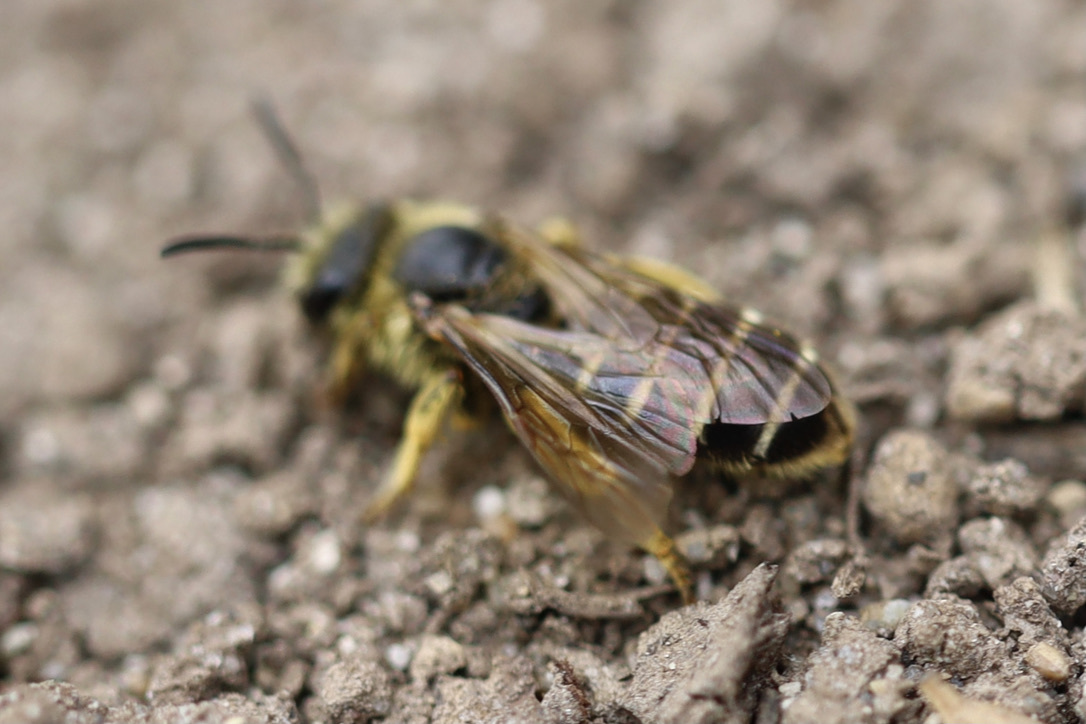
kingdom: Animalia
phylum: Arthropoda
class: Insecta
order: Hymenoptera
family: Halictidae
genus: Halictus
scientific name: Halictus rubicundus
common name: Orange-legged furrow bee
